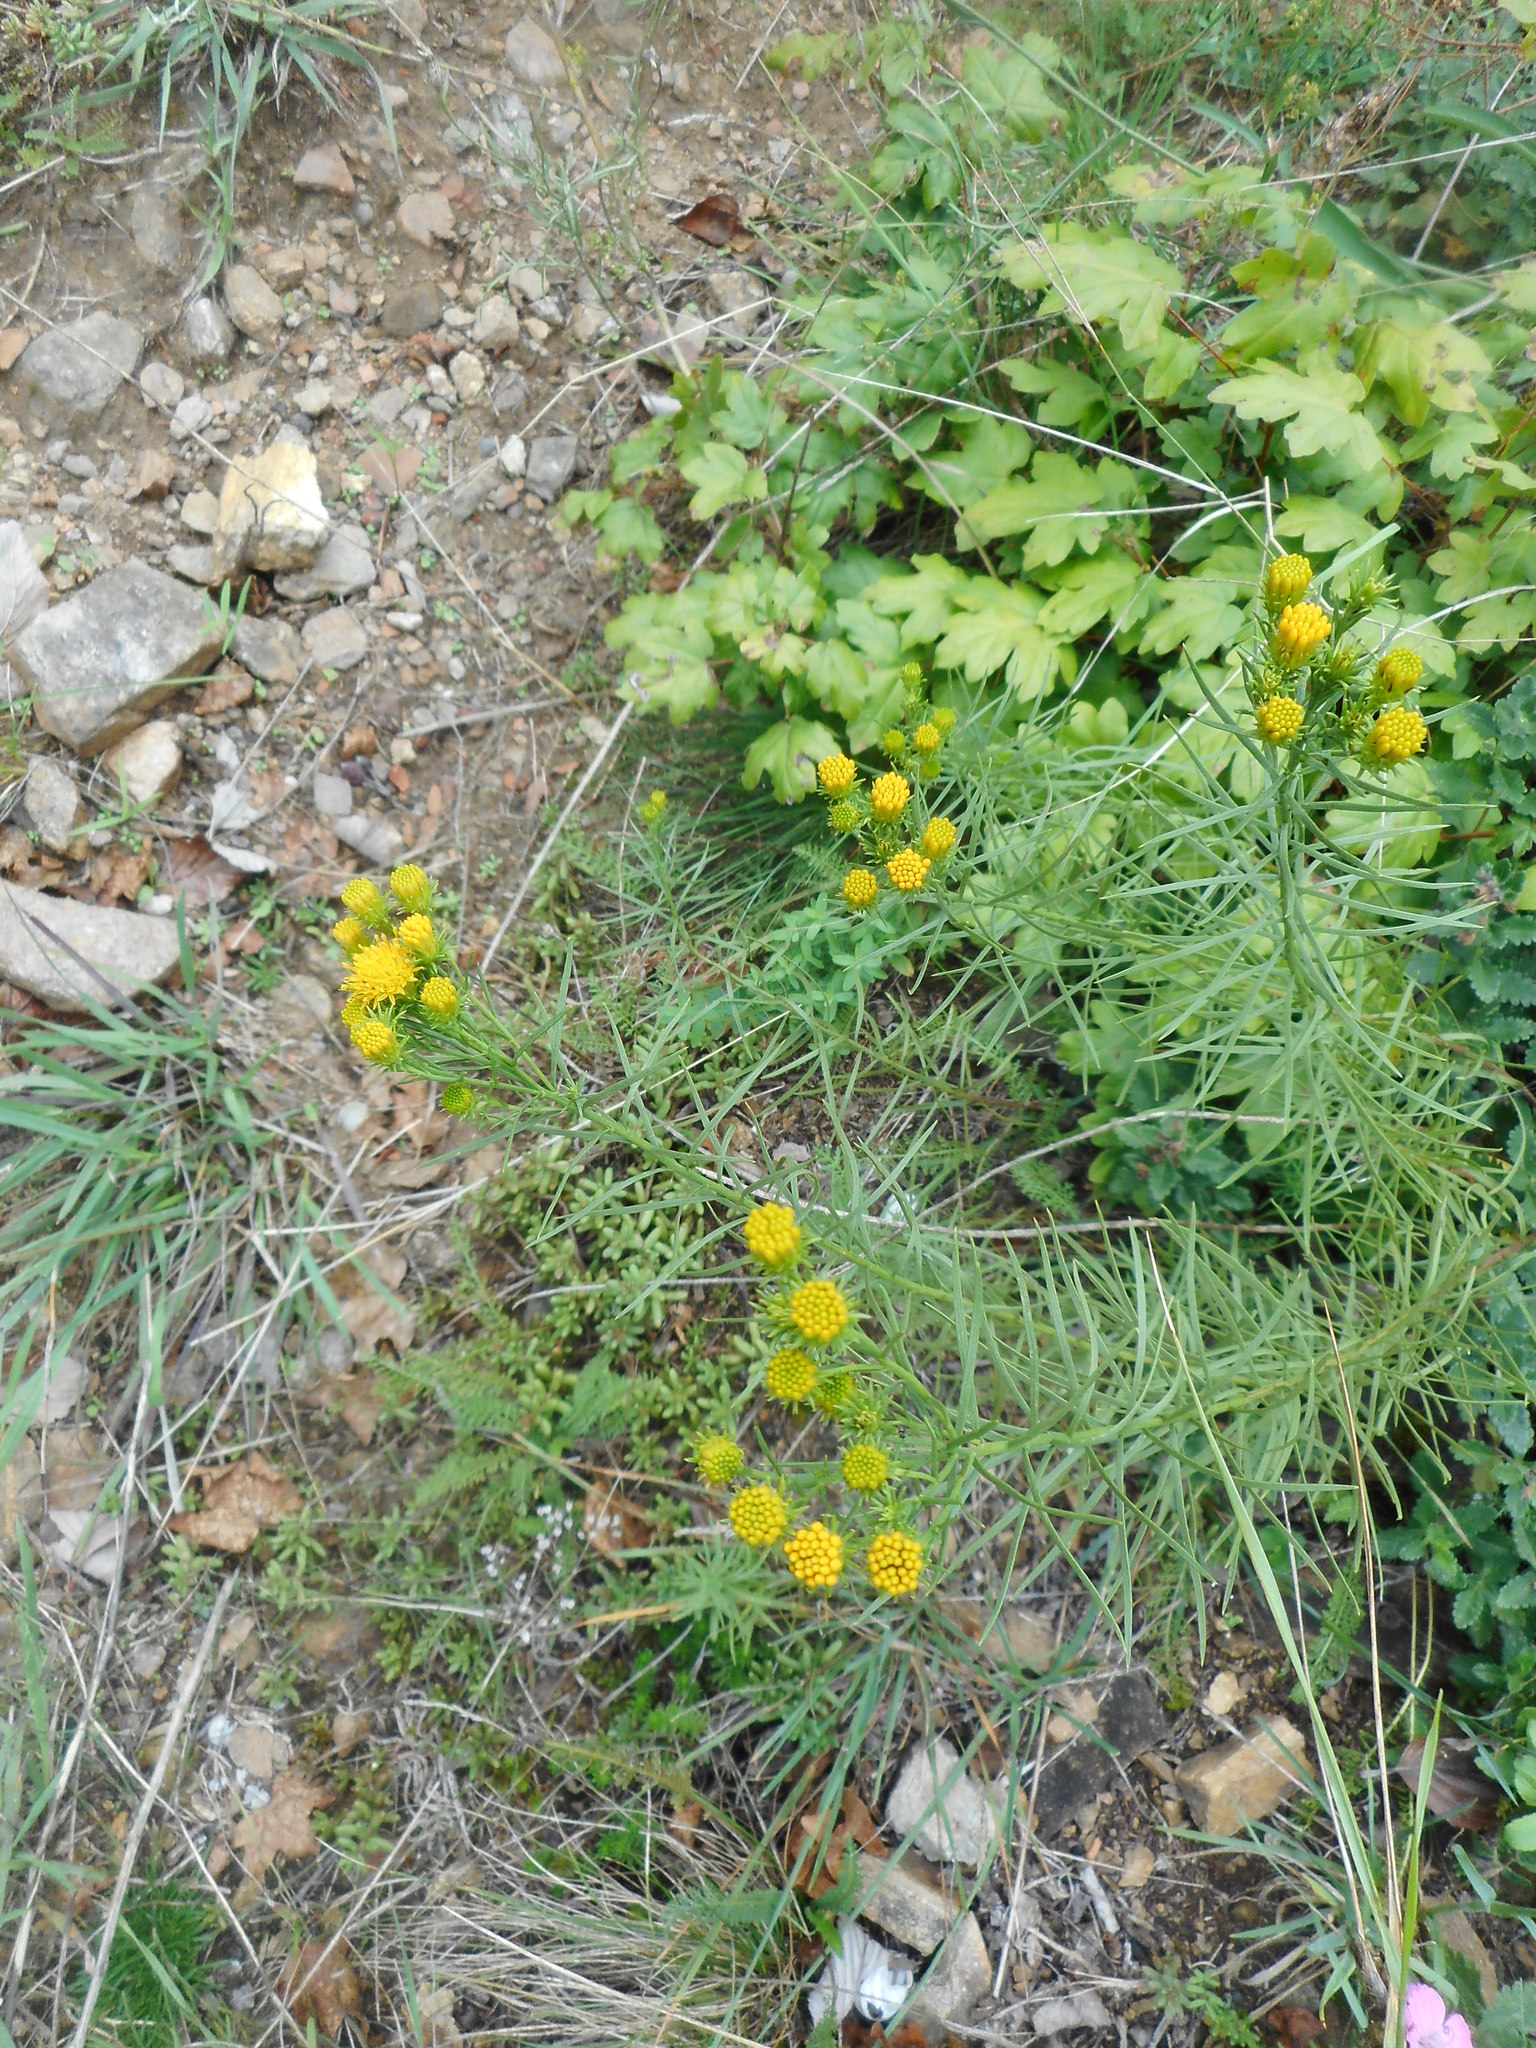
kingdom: Plantae
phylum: Tracheophyta
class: Magnoliopsida
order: Asterales
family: Asteraceae
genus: Galatella
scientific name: Galatella linosyris
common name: Goldilocks aster
